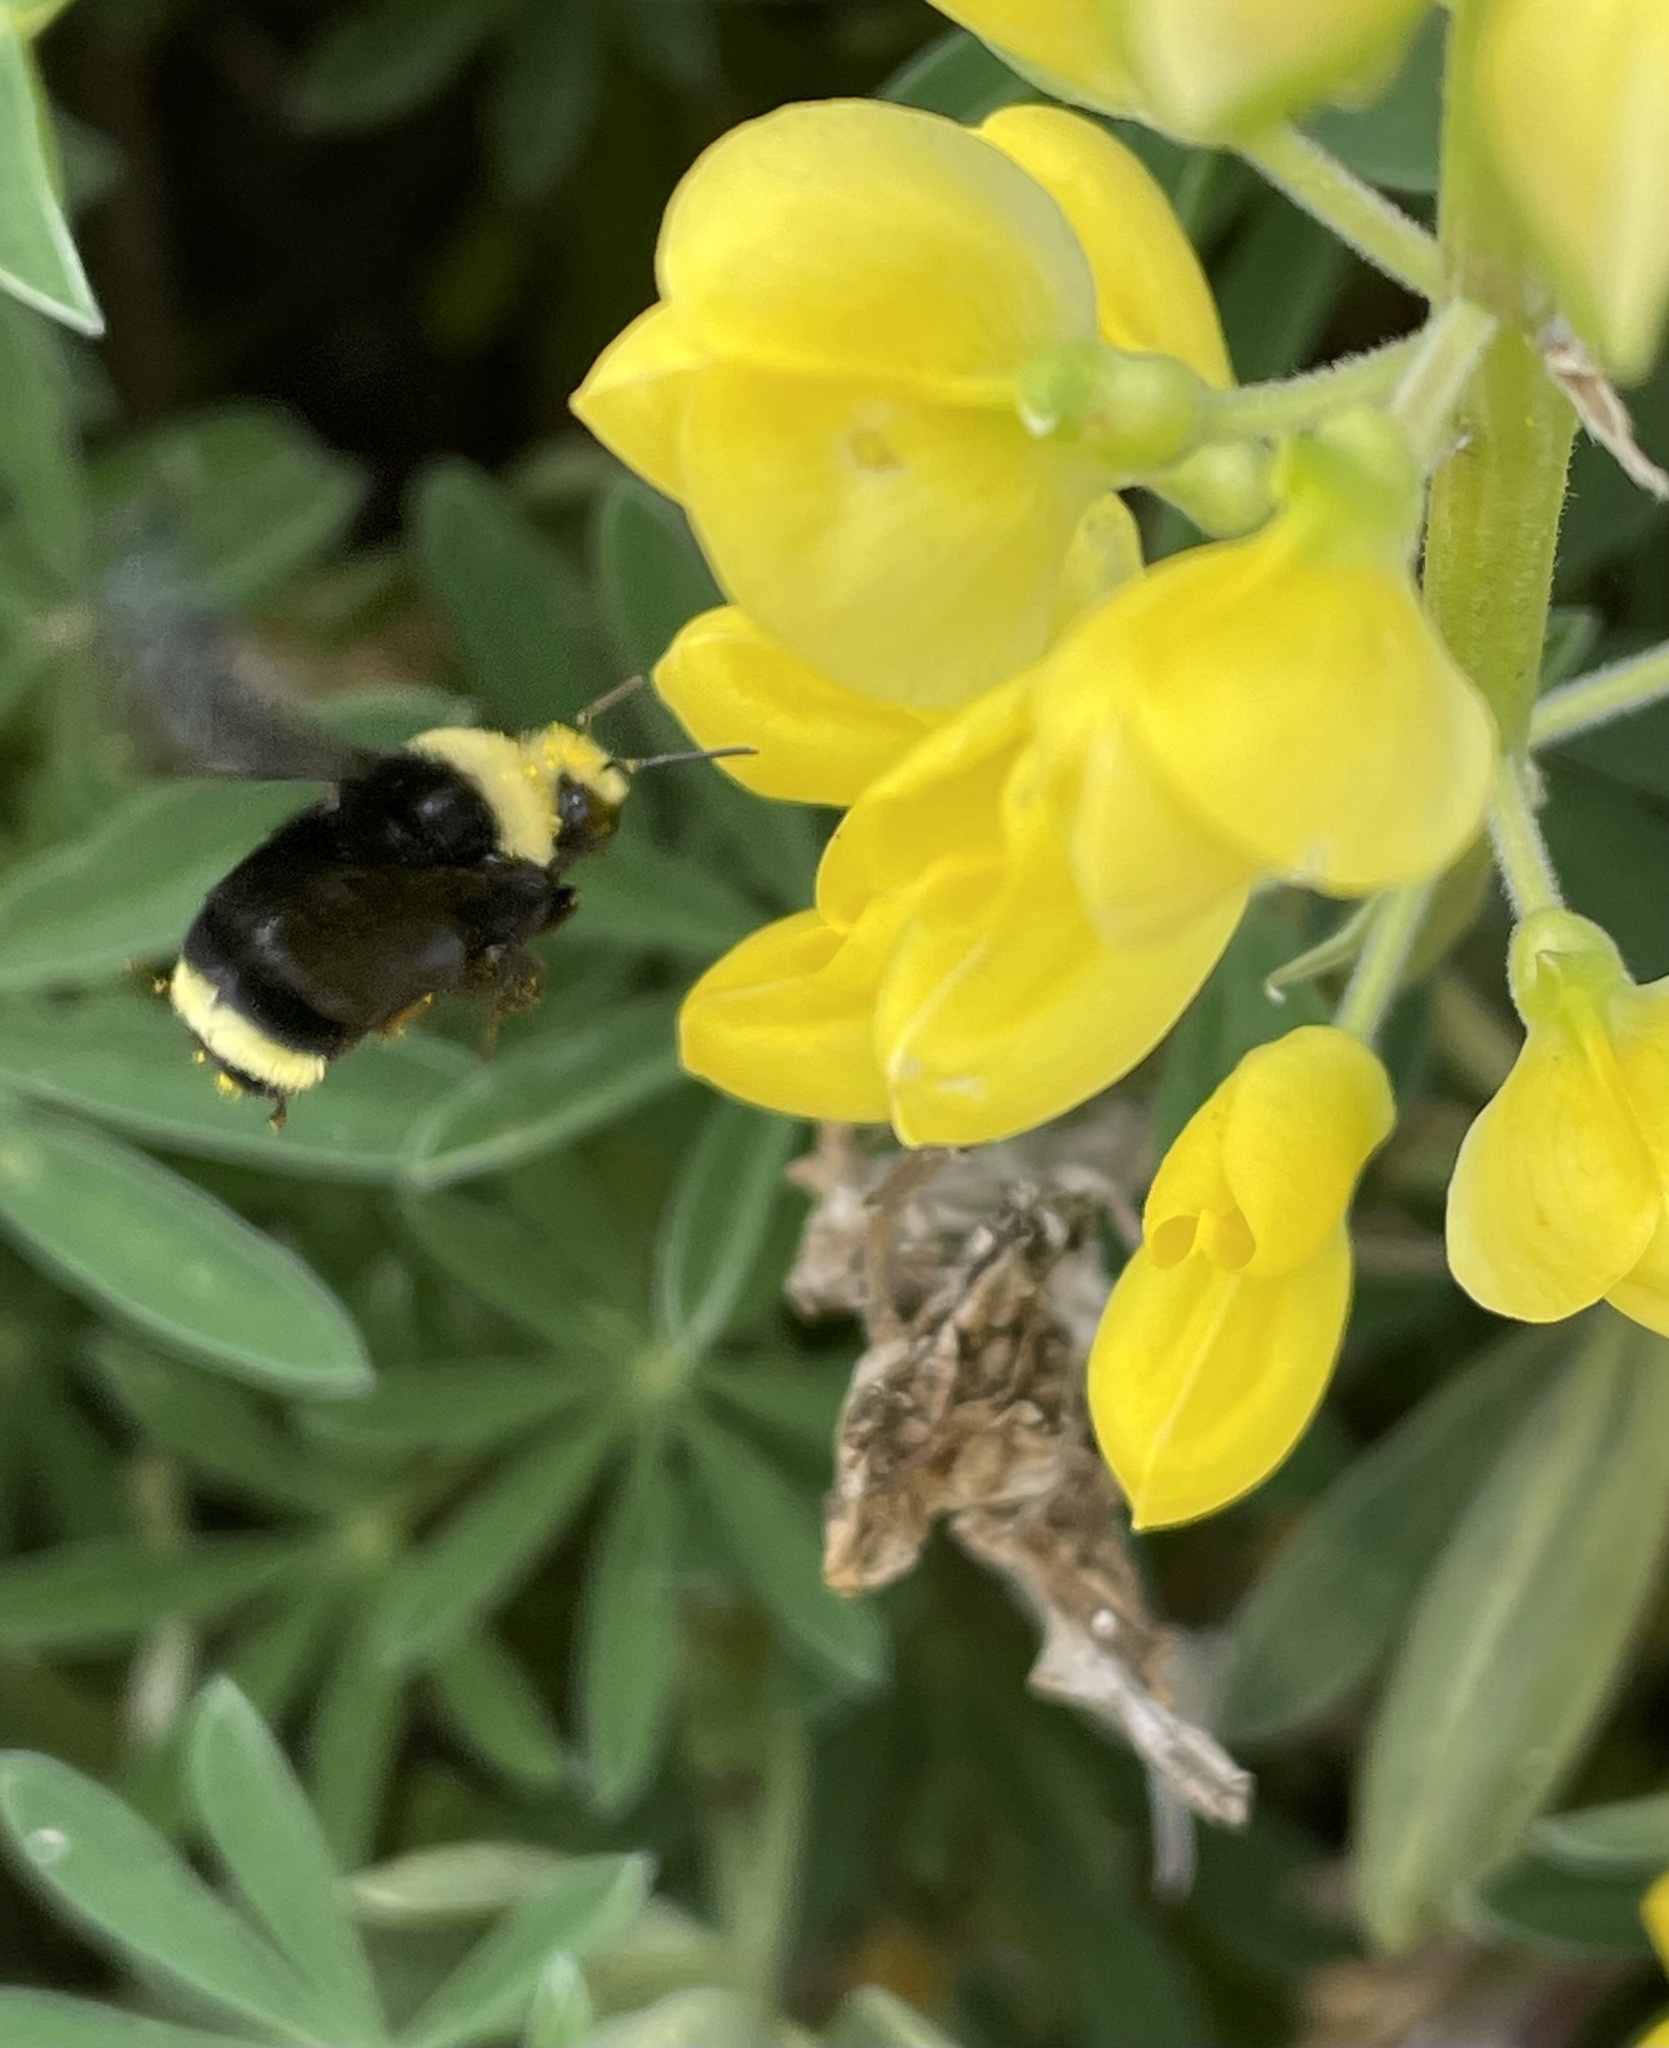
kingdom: Animalia
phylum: Arthropoda
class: Insecta
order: Hymenoptera
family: Apidae
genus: Bombus
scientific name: Bombus vosnesenskii
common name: Vosnesensky bumble bee
